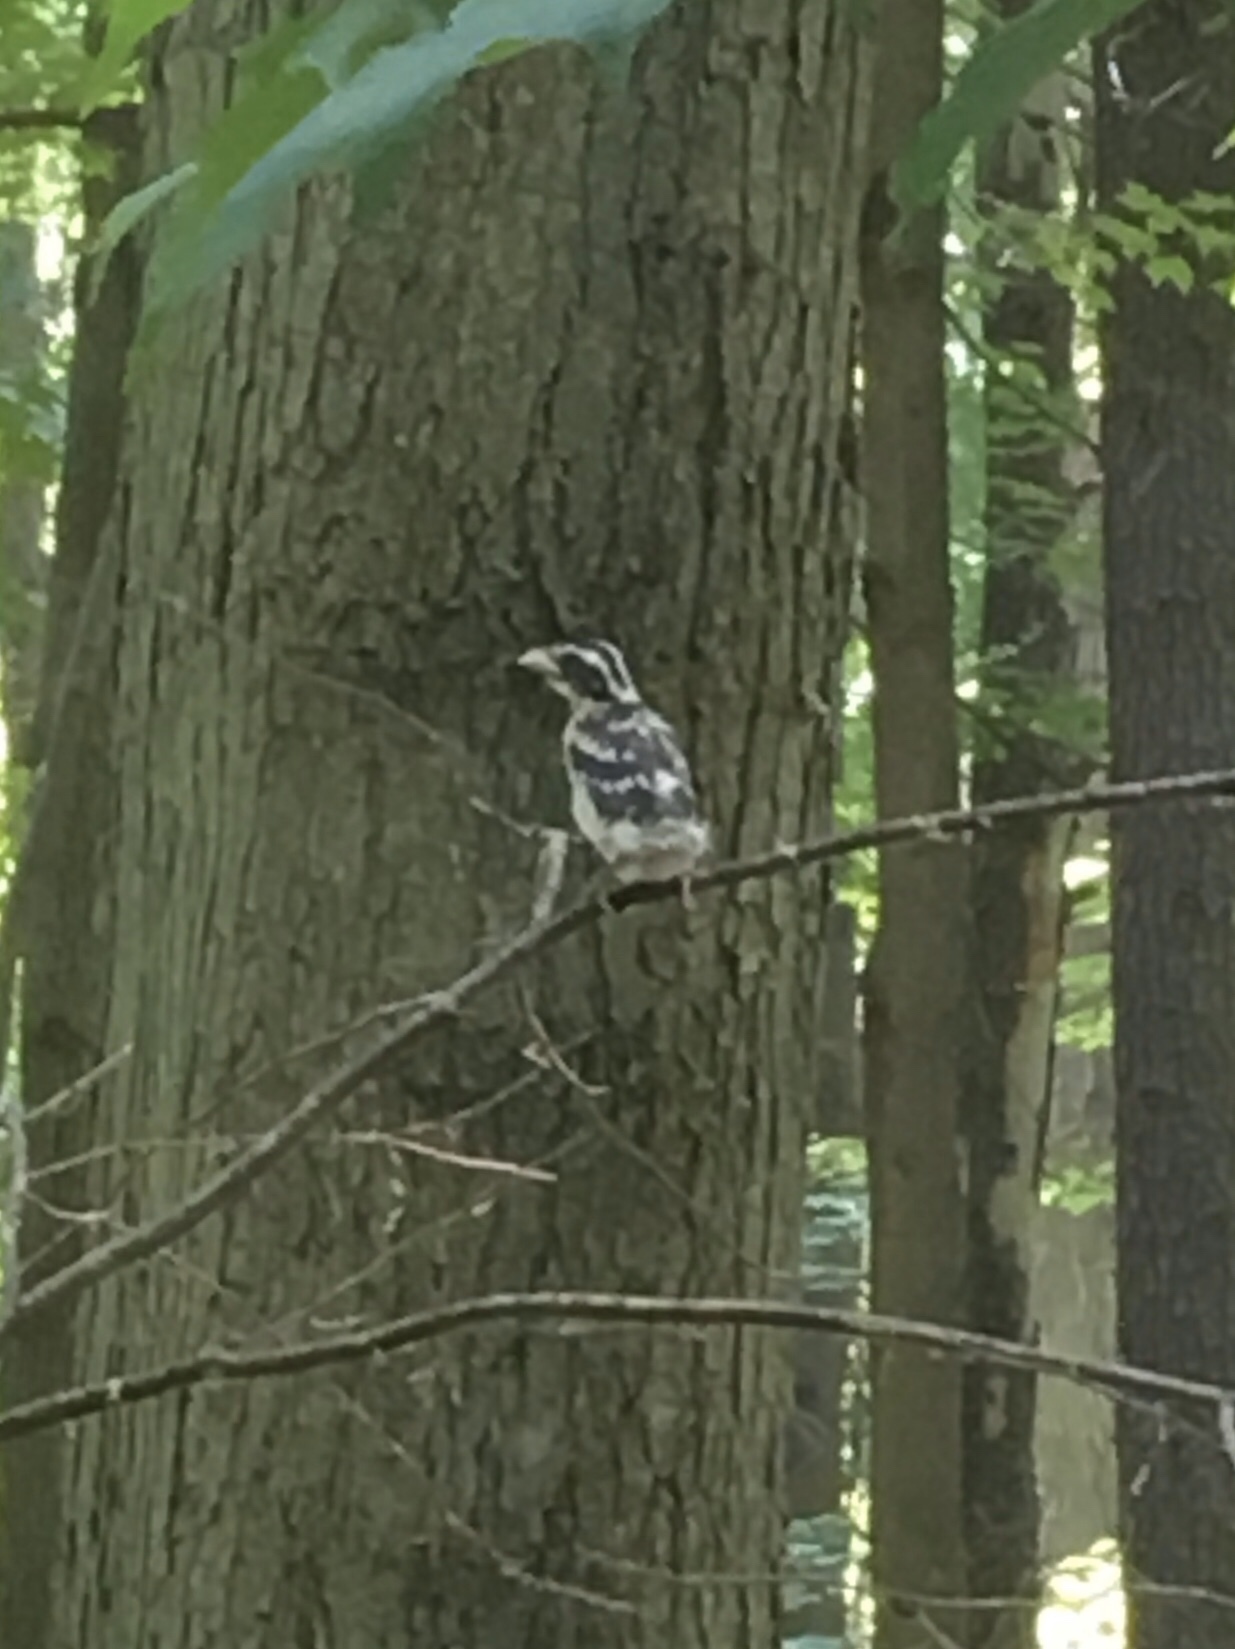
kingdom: Animalia
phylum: Chordata
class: Aves
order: Passeriformes
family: Cardinalidae
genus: Pheucticus
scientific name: Pheucticus ludovicianus
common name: Rose-breasted grosbeak
